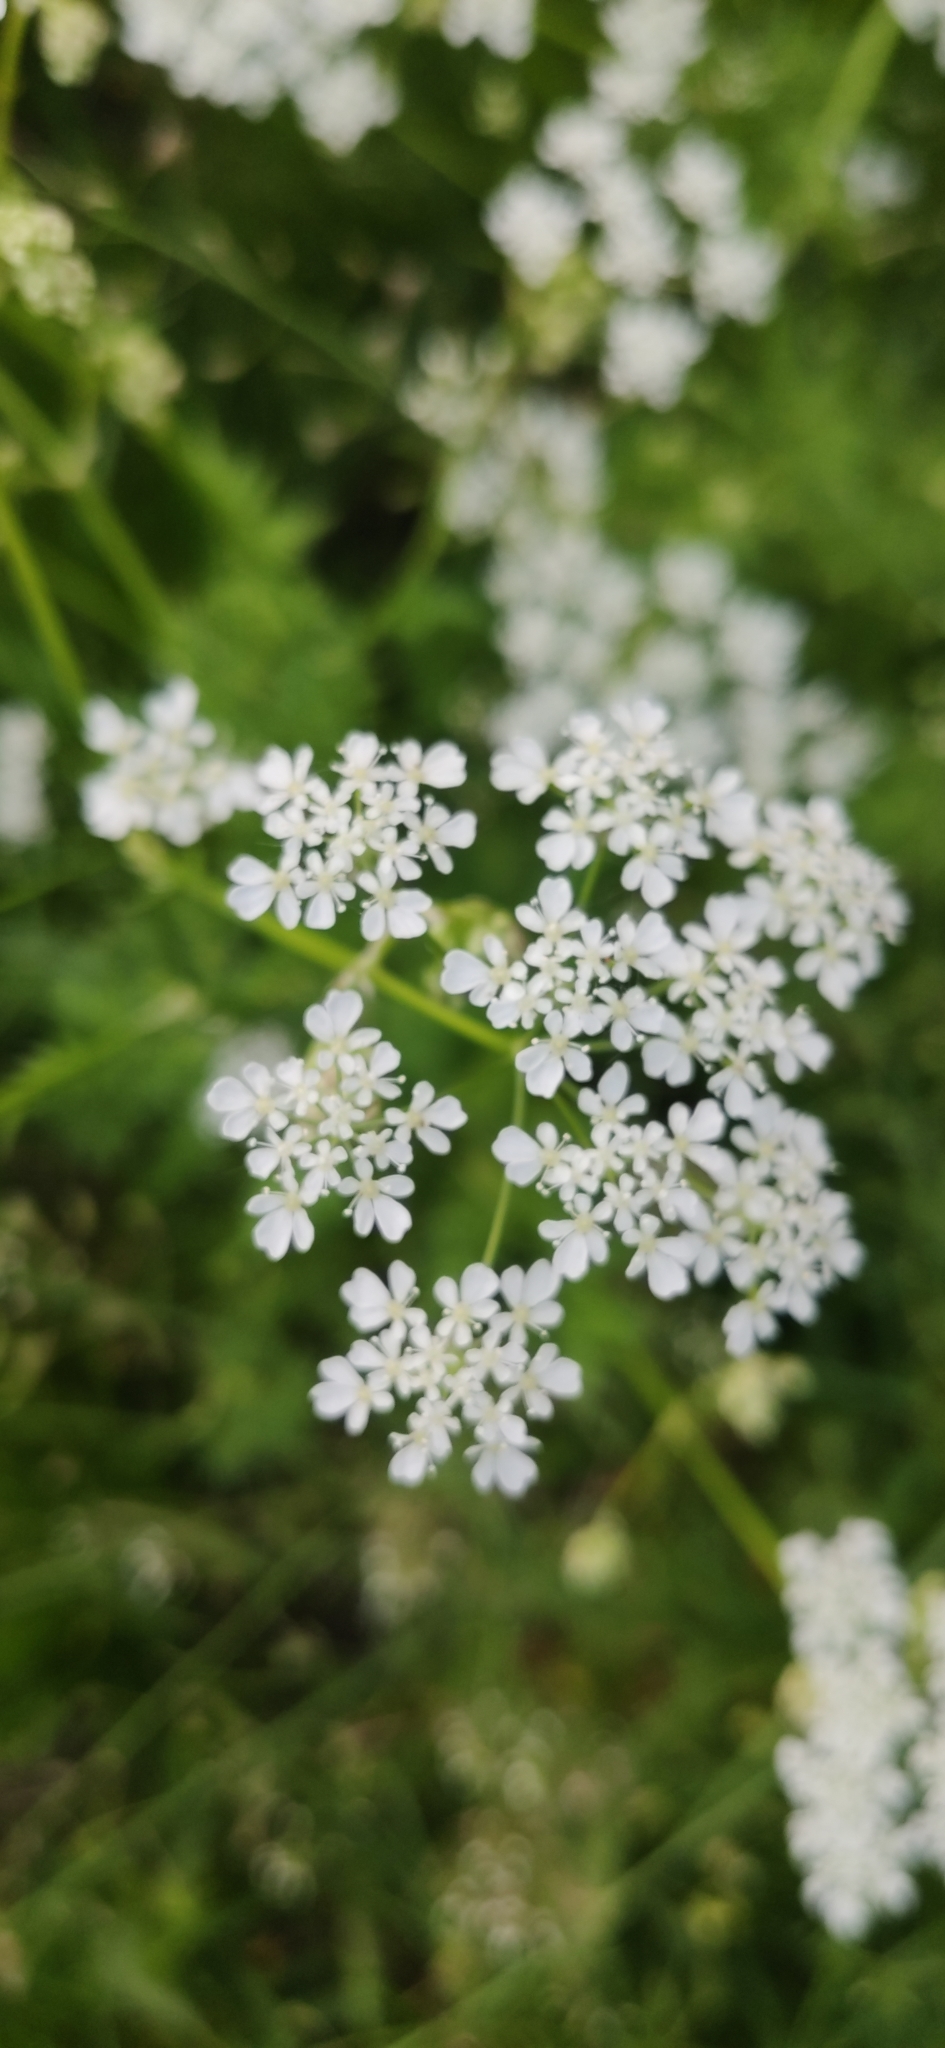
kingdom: Plantae
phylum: Tracheophyta
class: Magnoliopsida
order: Apiales
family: Apiaceae
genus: Anthriscus
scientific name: Anthriscus sylvestris
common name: Cow parsley
